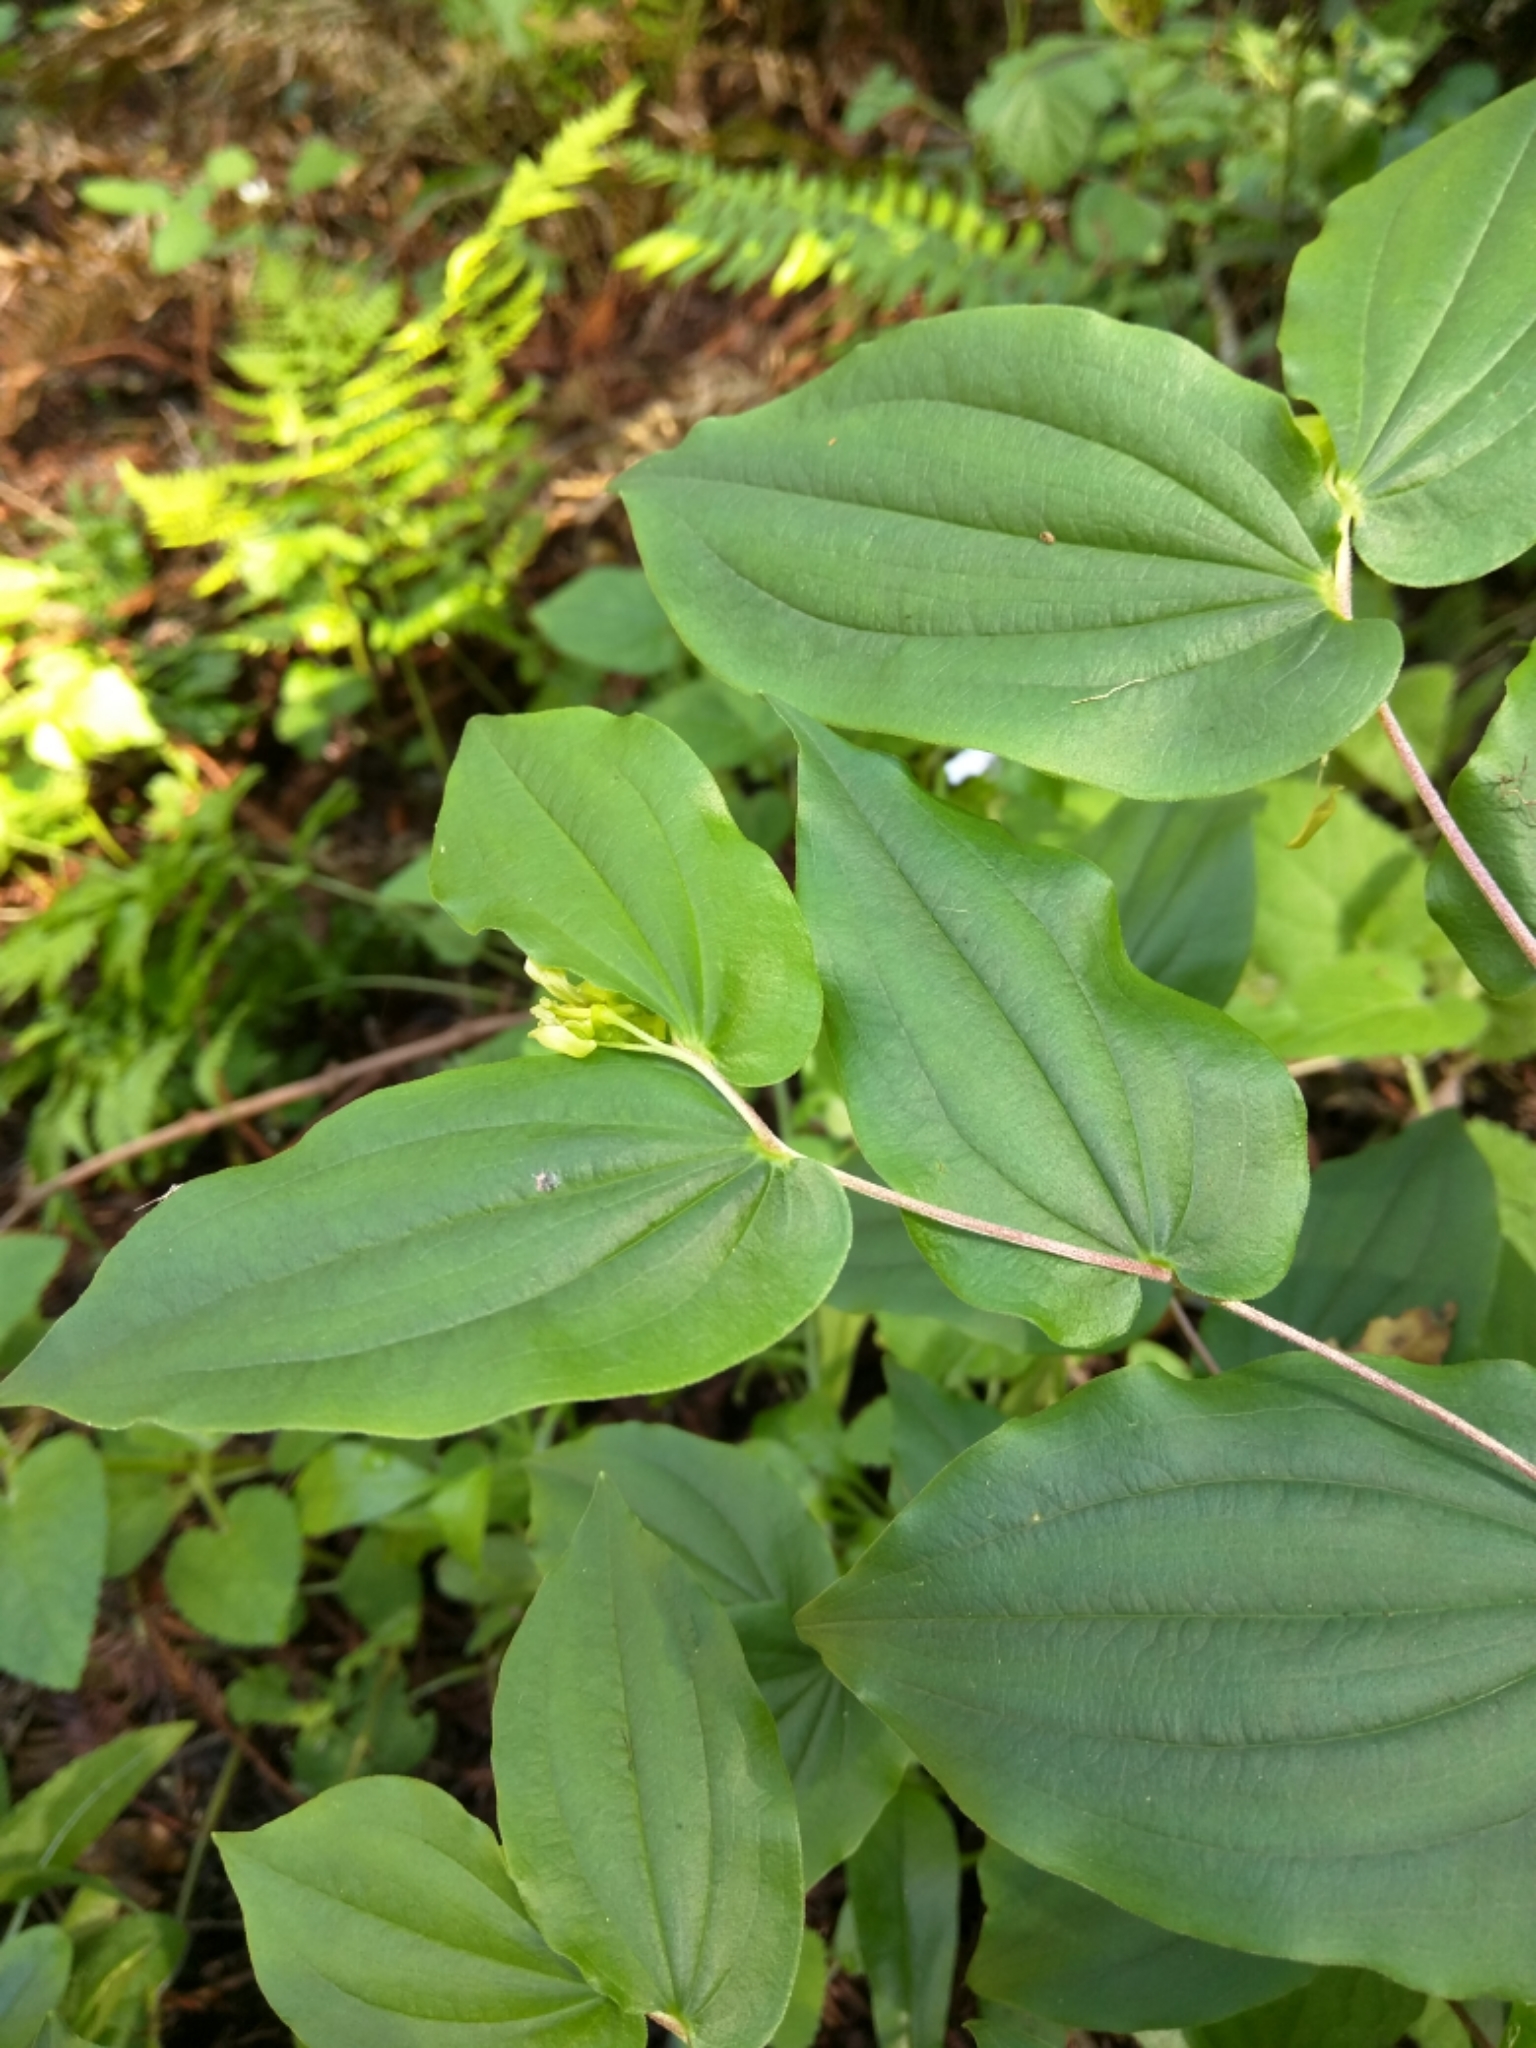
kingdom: Plantae
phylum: Tracheophyta
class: Liliopsida
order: Liliales
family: Liliaceae
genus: Prosartes
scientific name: Prosartes hookeri
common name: Fairy-bells
